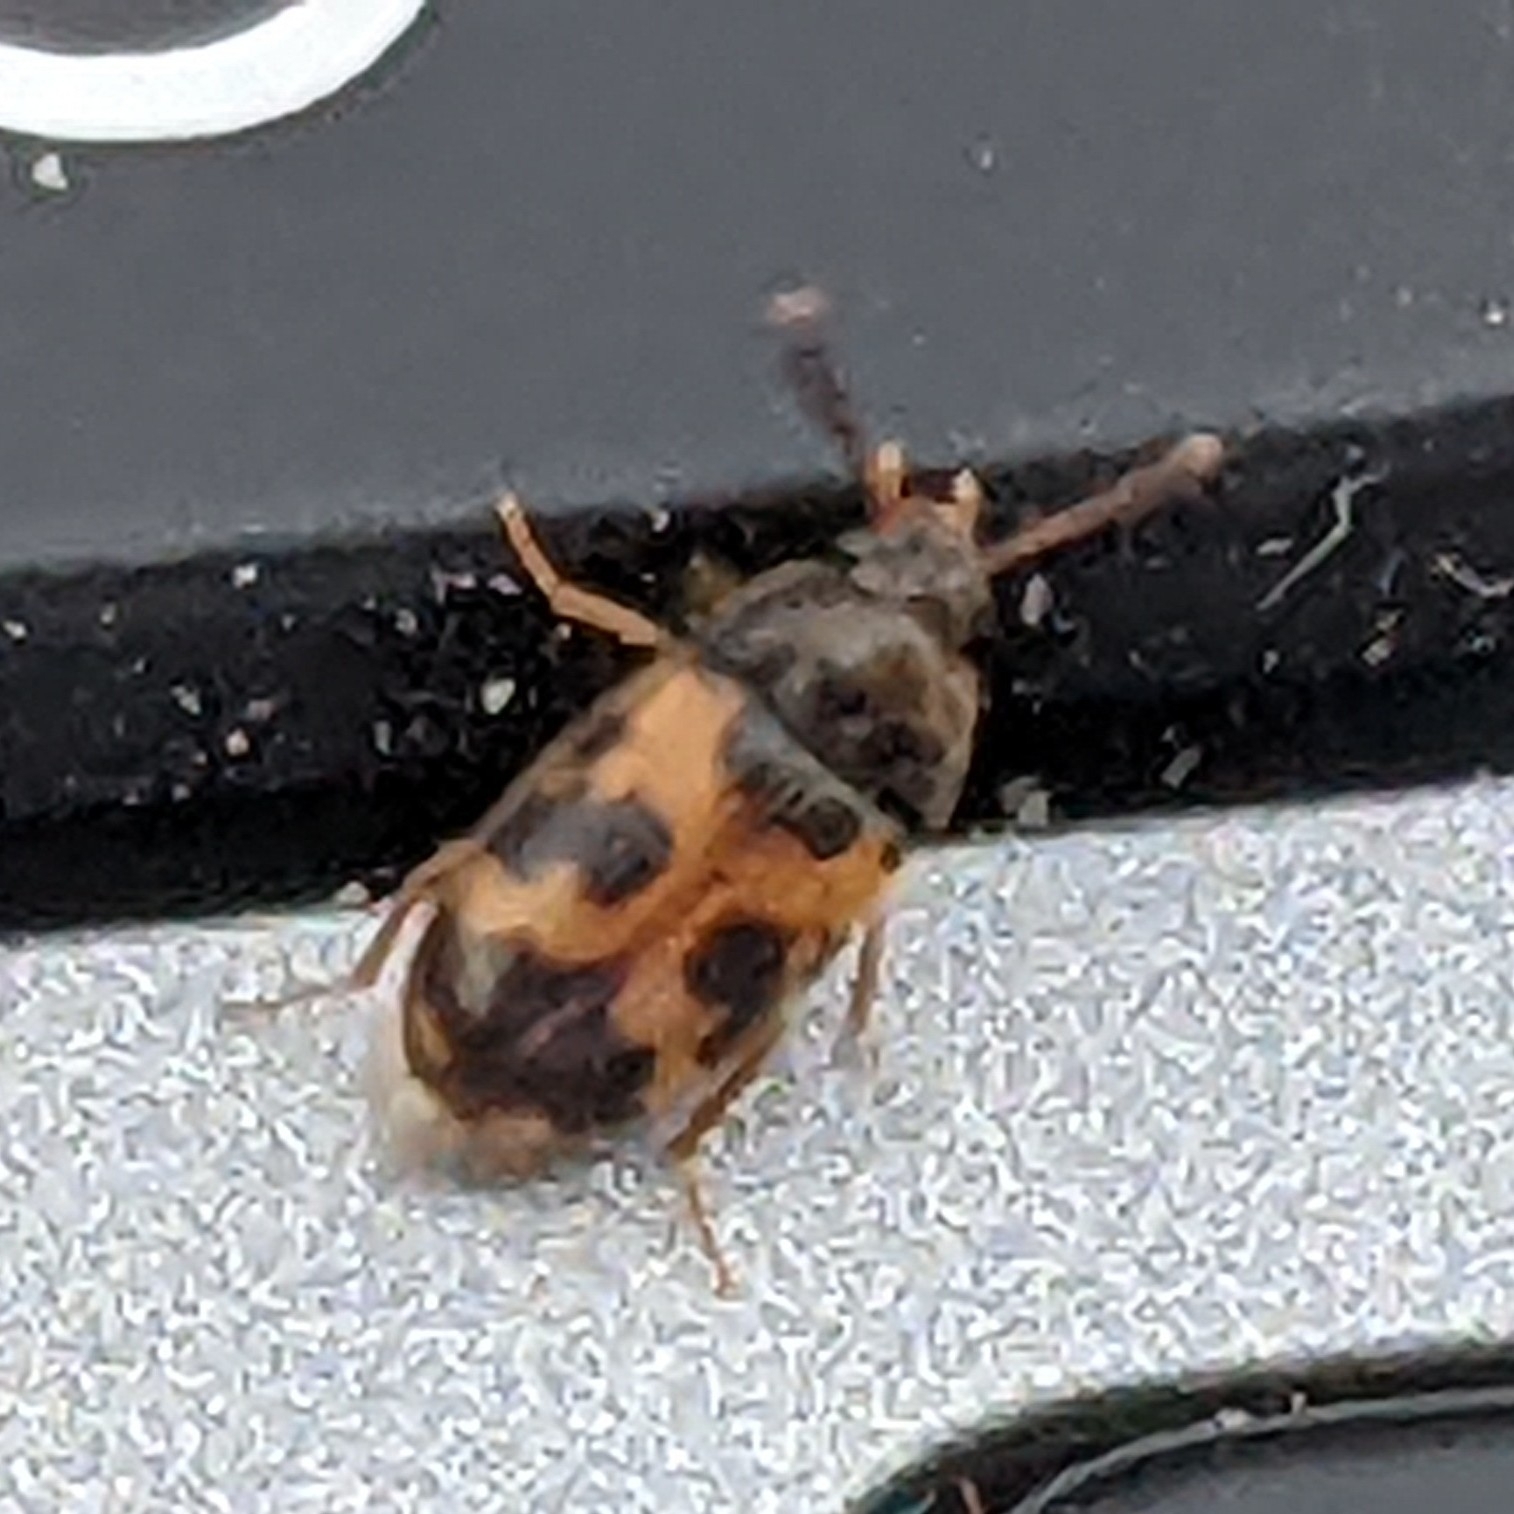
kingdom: Animalia
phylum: Arthropoda
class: Insecta
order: Coleoptera
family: Mycetophagidae
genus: Mycetophagus
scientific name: Mycetophagus flexuosus
